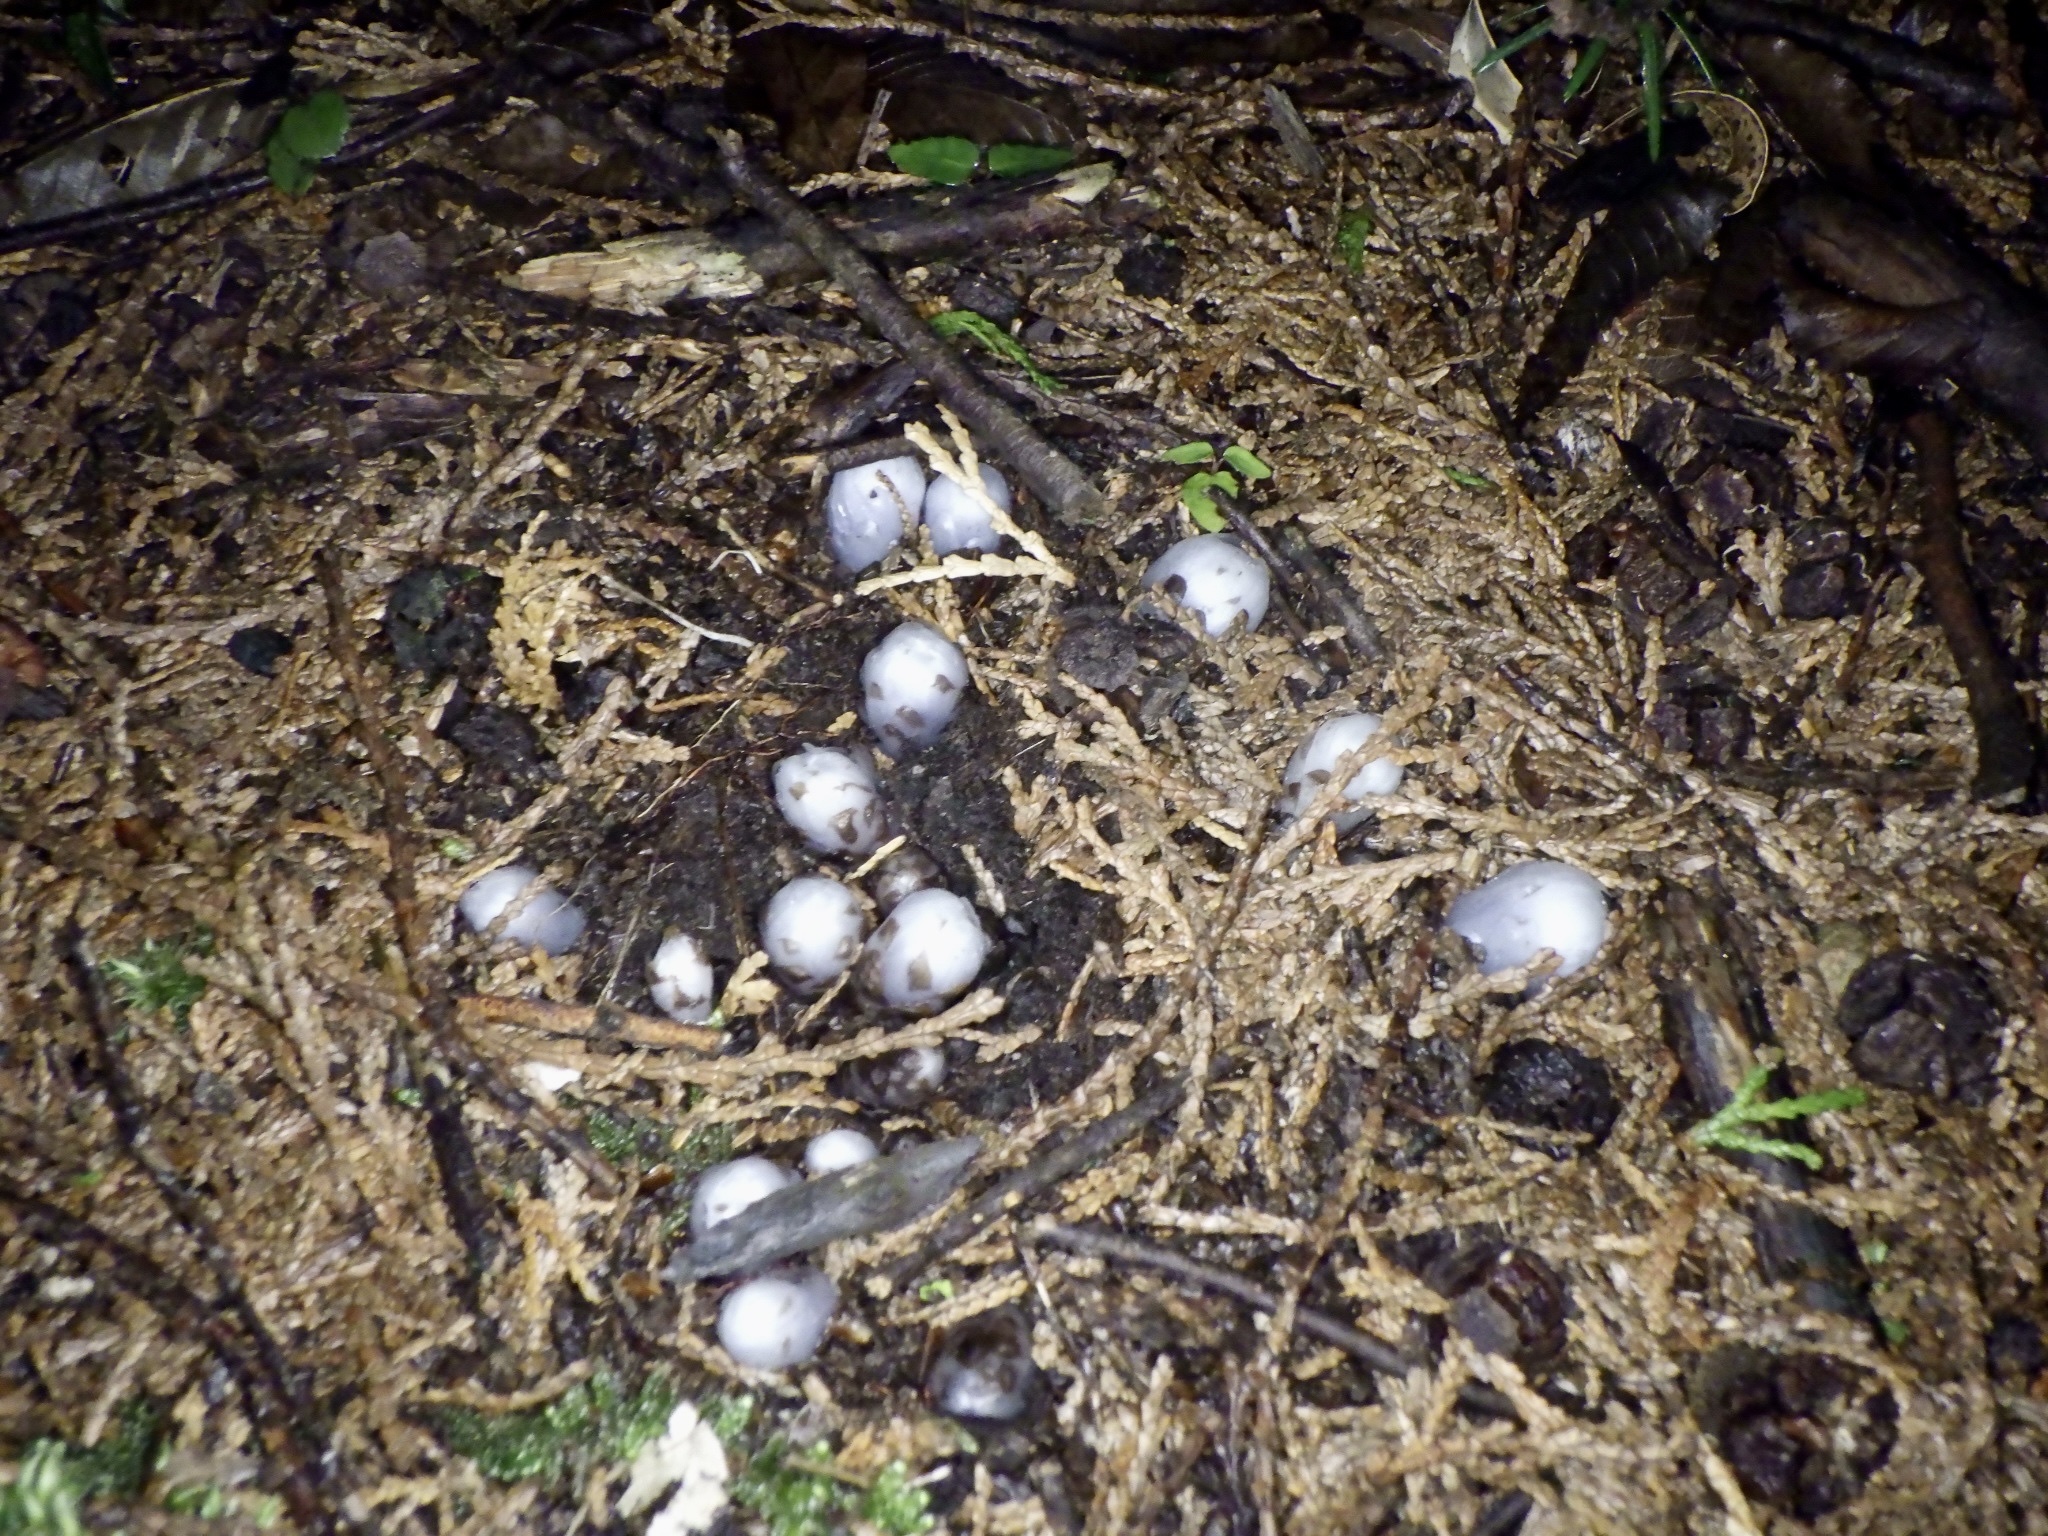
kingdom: Plantae
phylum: Tracheophyta
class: Magnoliopsida
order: Ericales
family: Ericaceae
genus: Monotropastrum
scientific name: Monotropastrum humile
